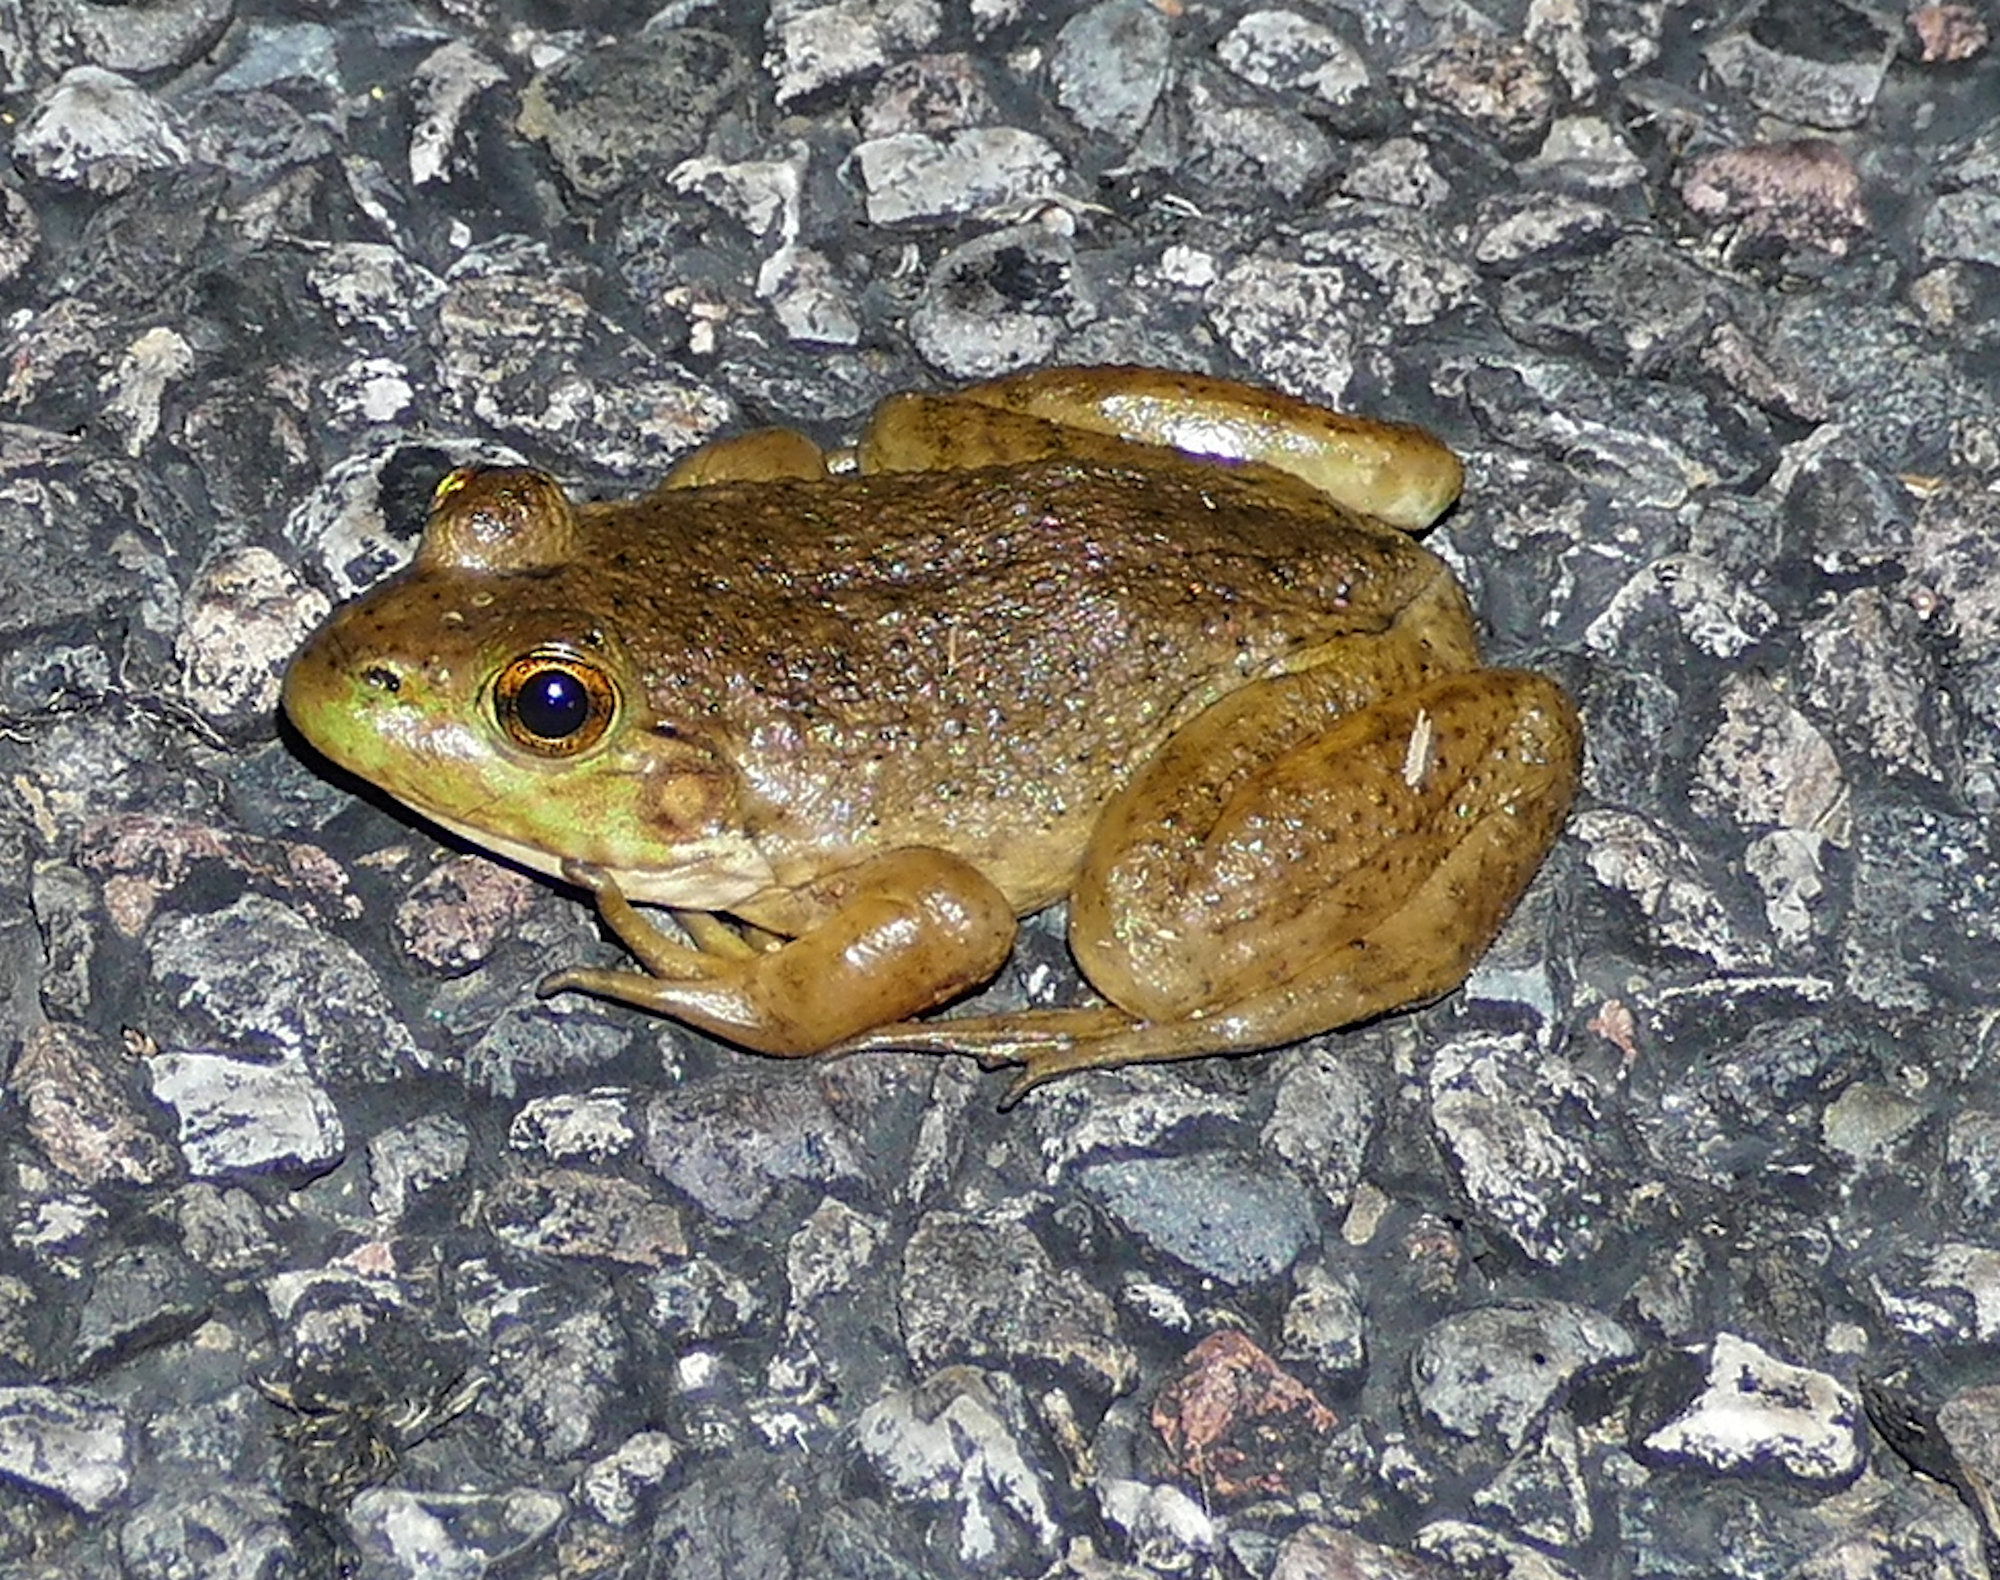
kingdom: Animalia
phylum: Chordata
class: Amphibia
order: Anura
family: Ranidae
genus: Lithobates
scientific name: Lithobates catesbeianus
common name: American bullfrog
